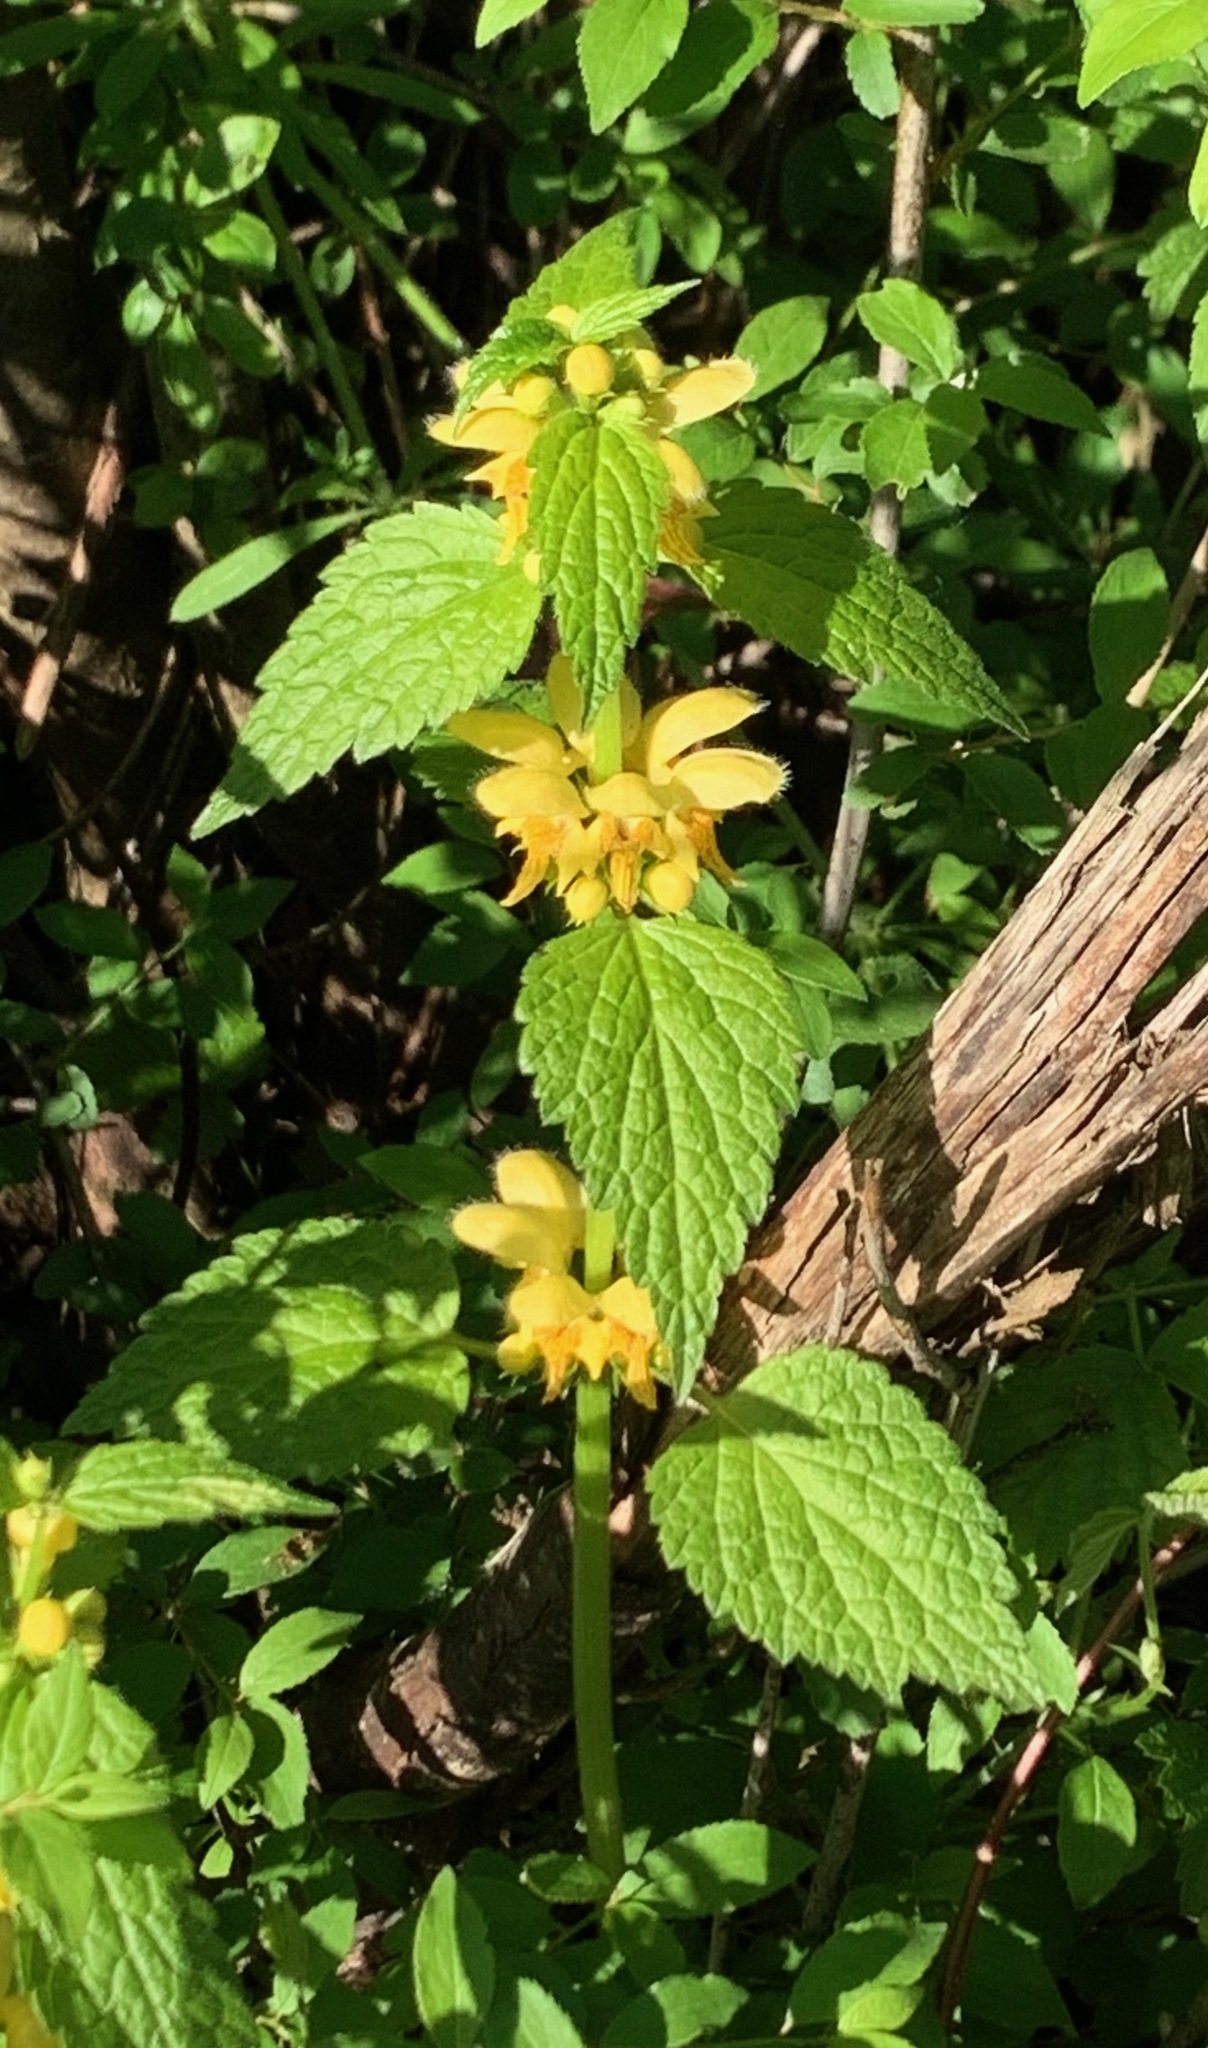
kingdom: Plantae
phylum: Tracheophyta
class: Magnoliopsida
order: Lamiales
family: Lamiaceae
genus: Lamium
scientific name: Lamium galeobdolon
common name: Yellow archangel
